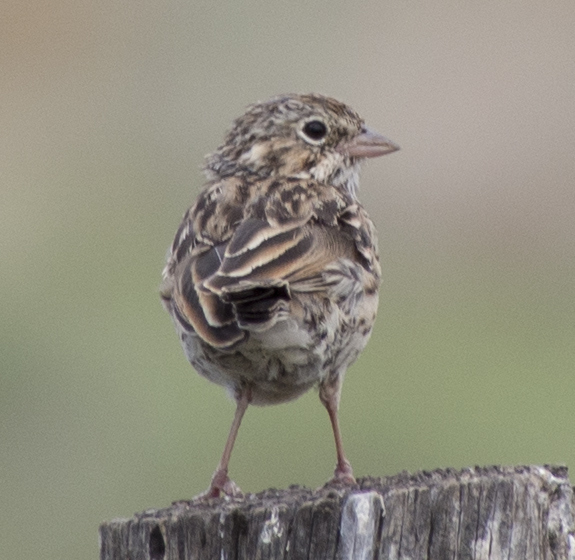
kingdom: Animalia
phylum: Chordata
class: Aves
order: Passeriformes
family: Passerellidae
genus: Pooecetes
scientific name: Pooecetes gramineus
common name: Vesper sparrow
